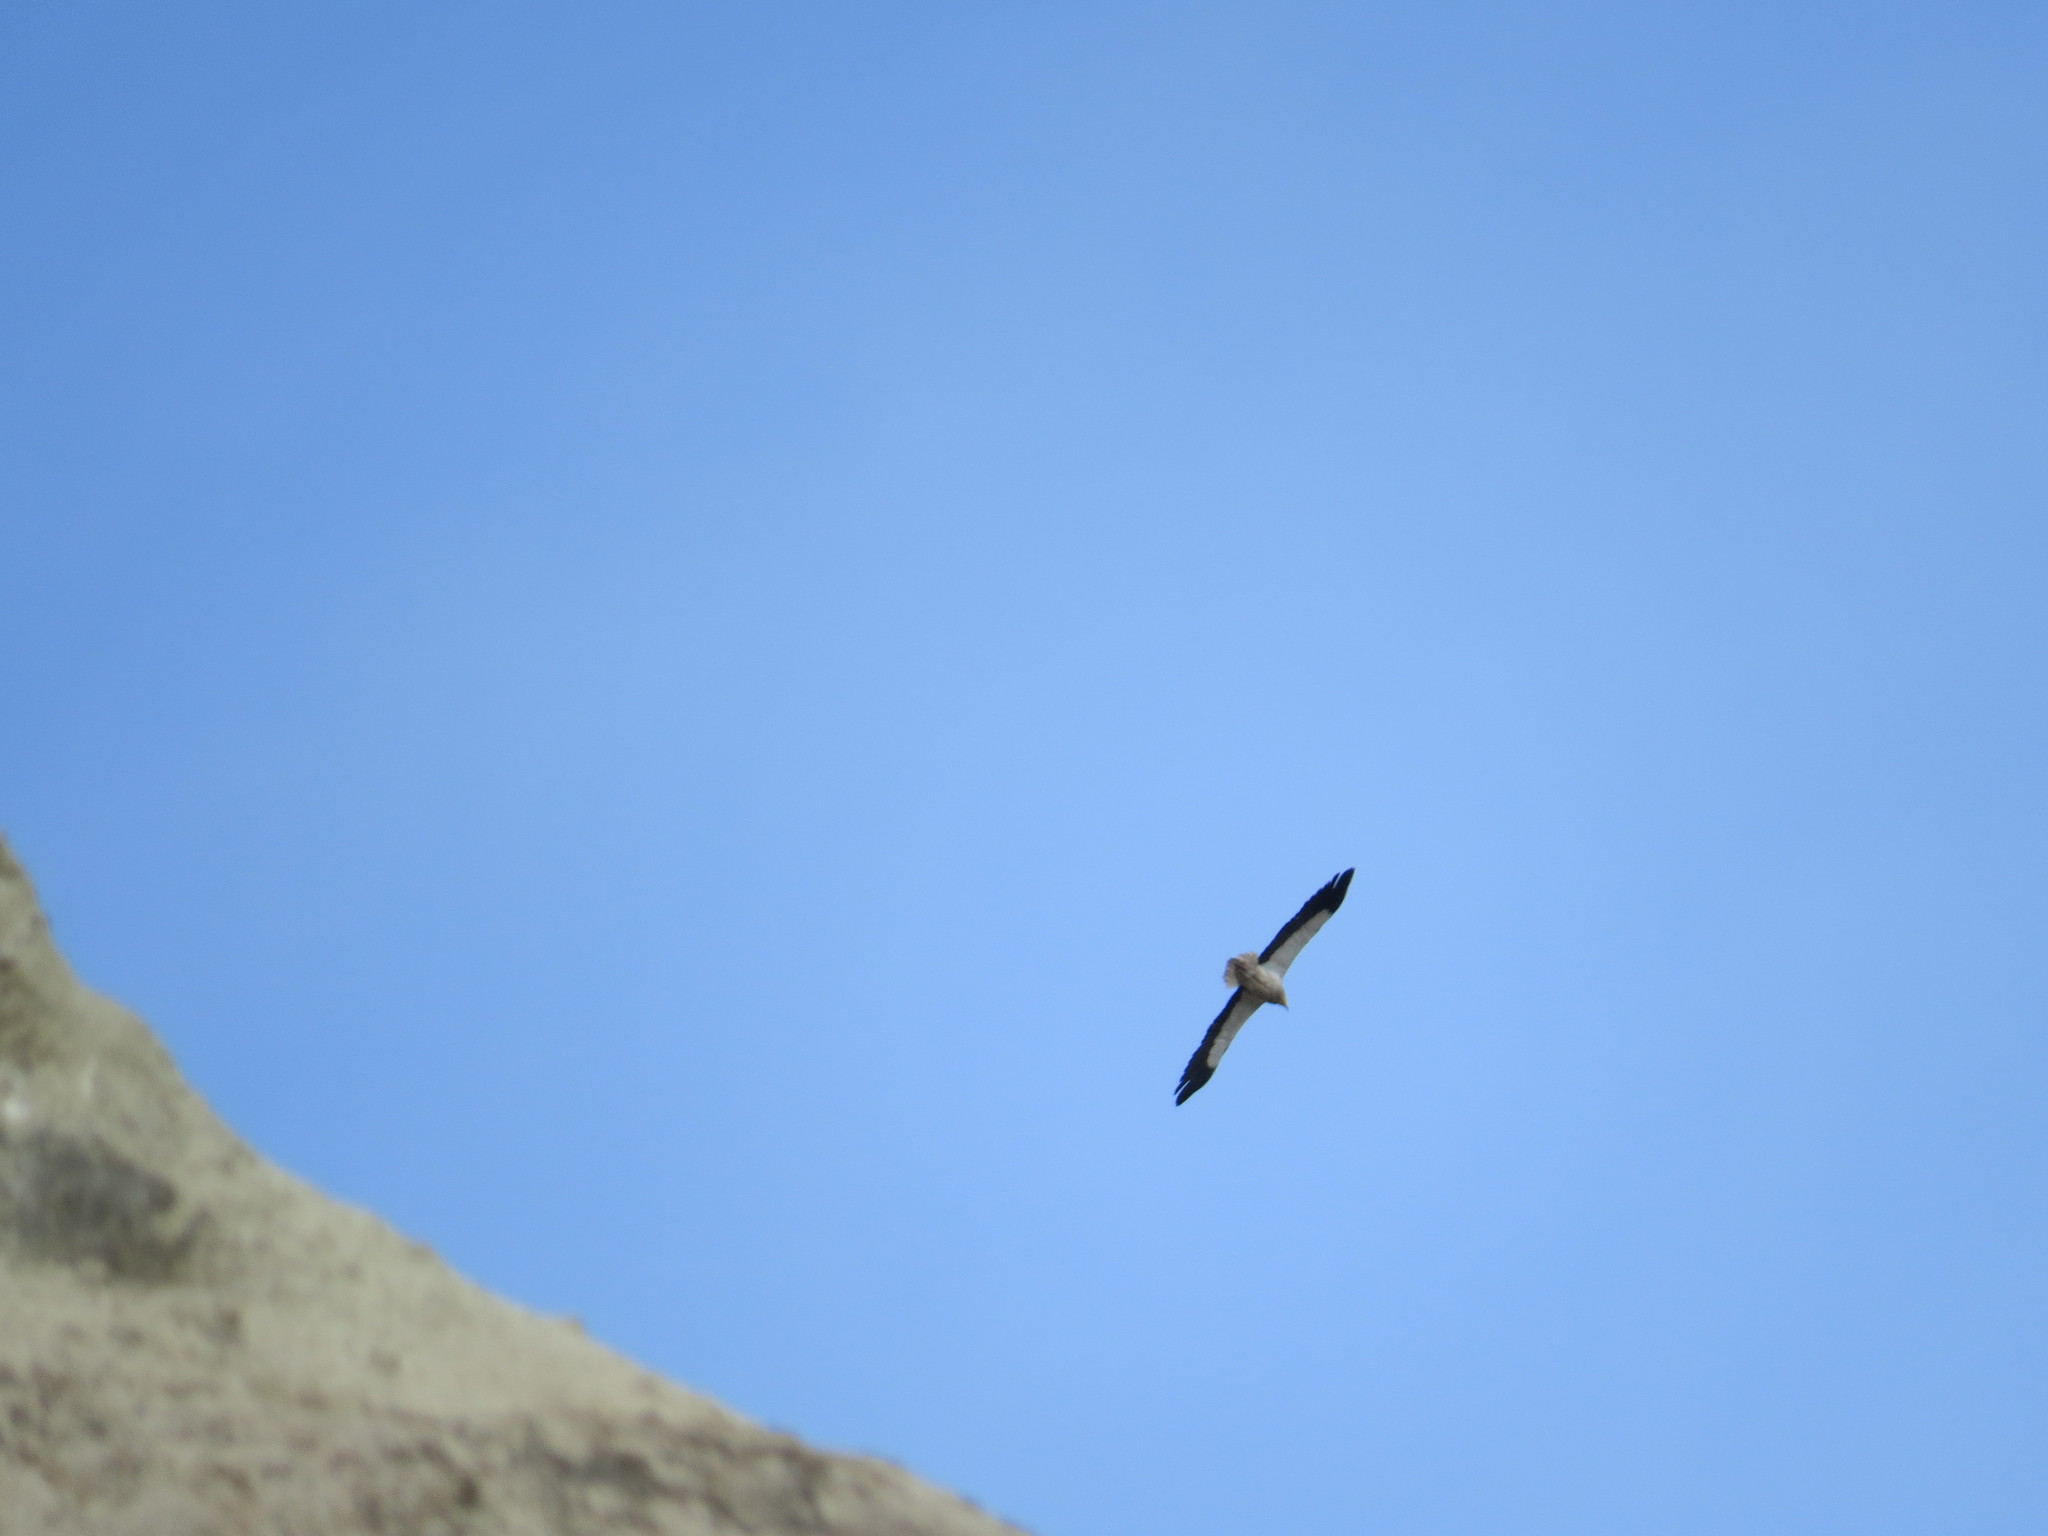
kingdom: Animalia
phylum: Chordata
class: Aves
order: Accipitriformes
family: Accipitridae
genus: Neophron
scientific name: Neophron percnopterus
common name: Egyptian vulture
